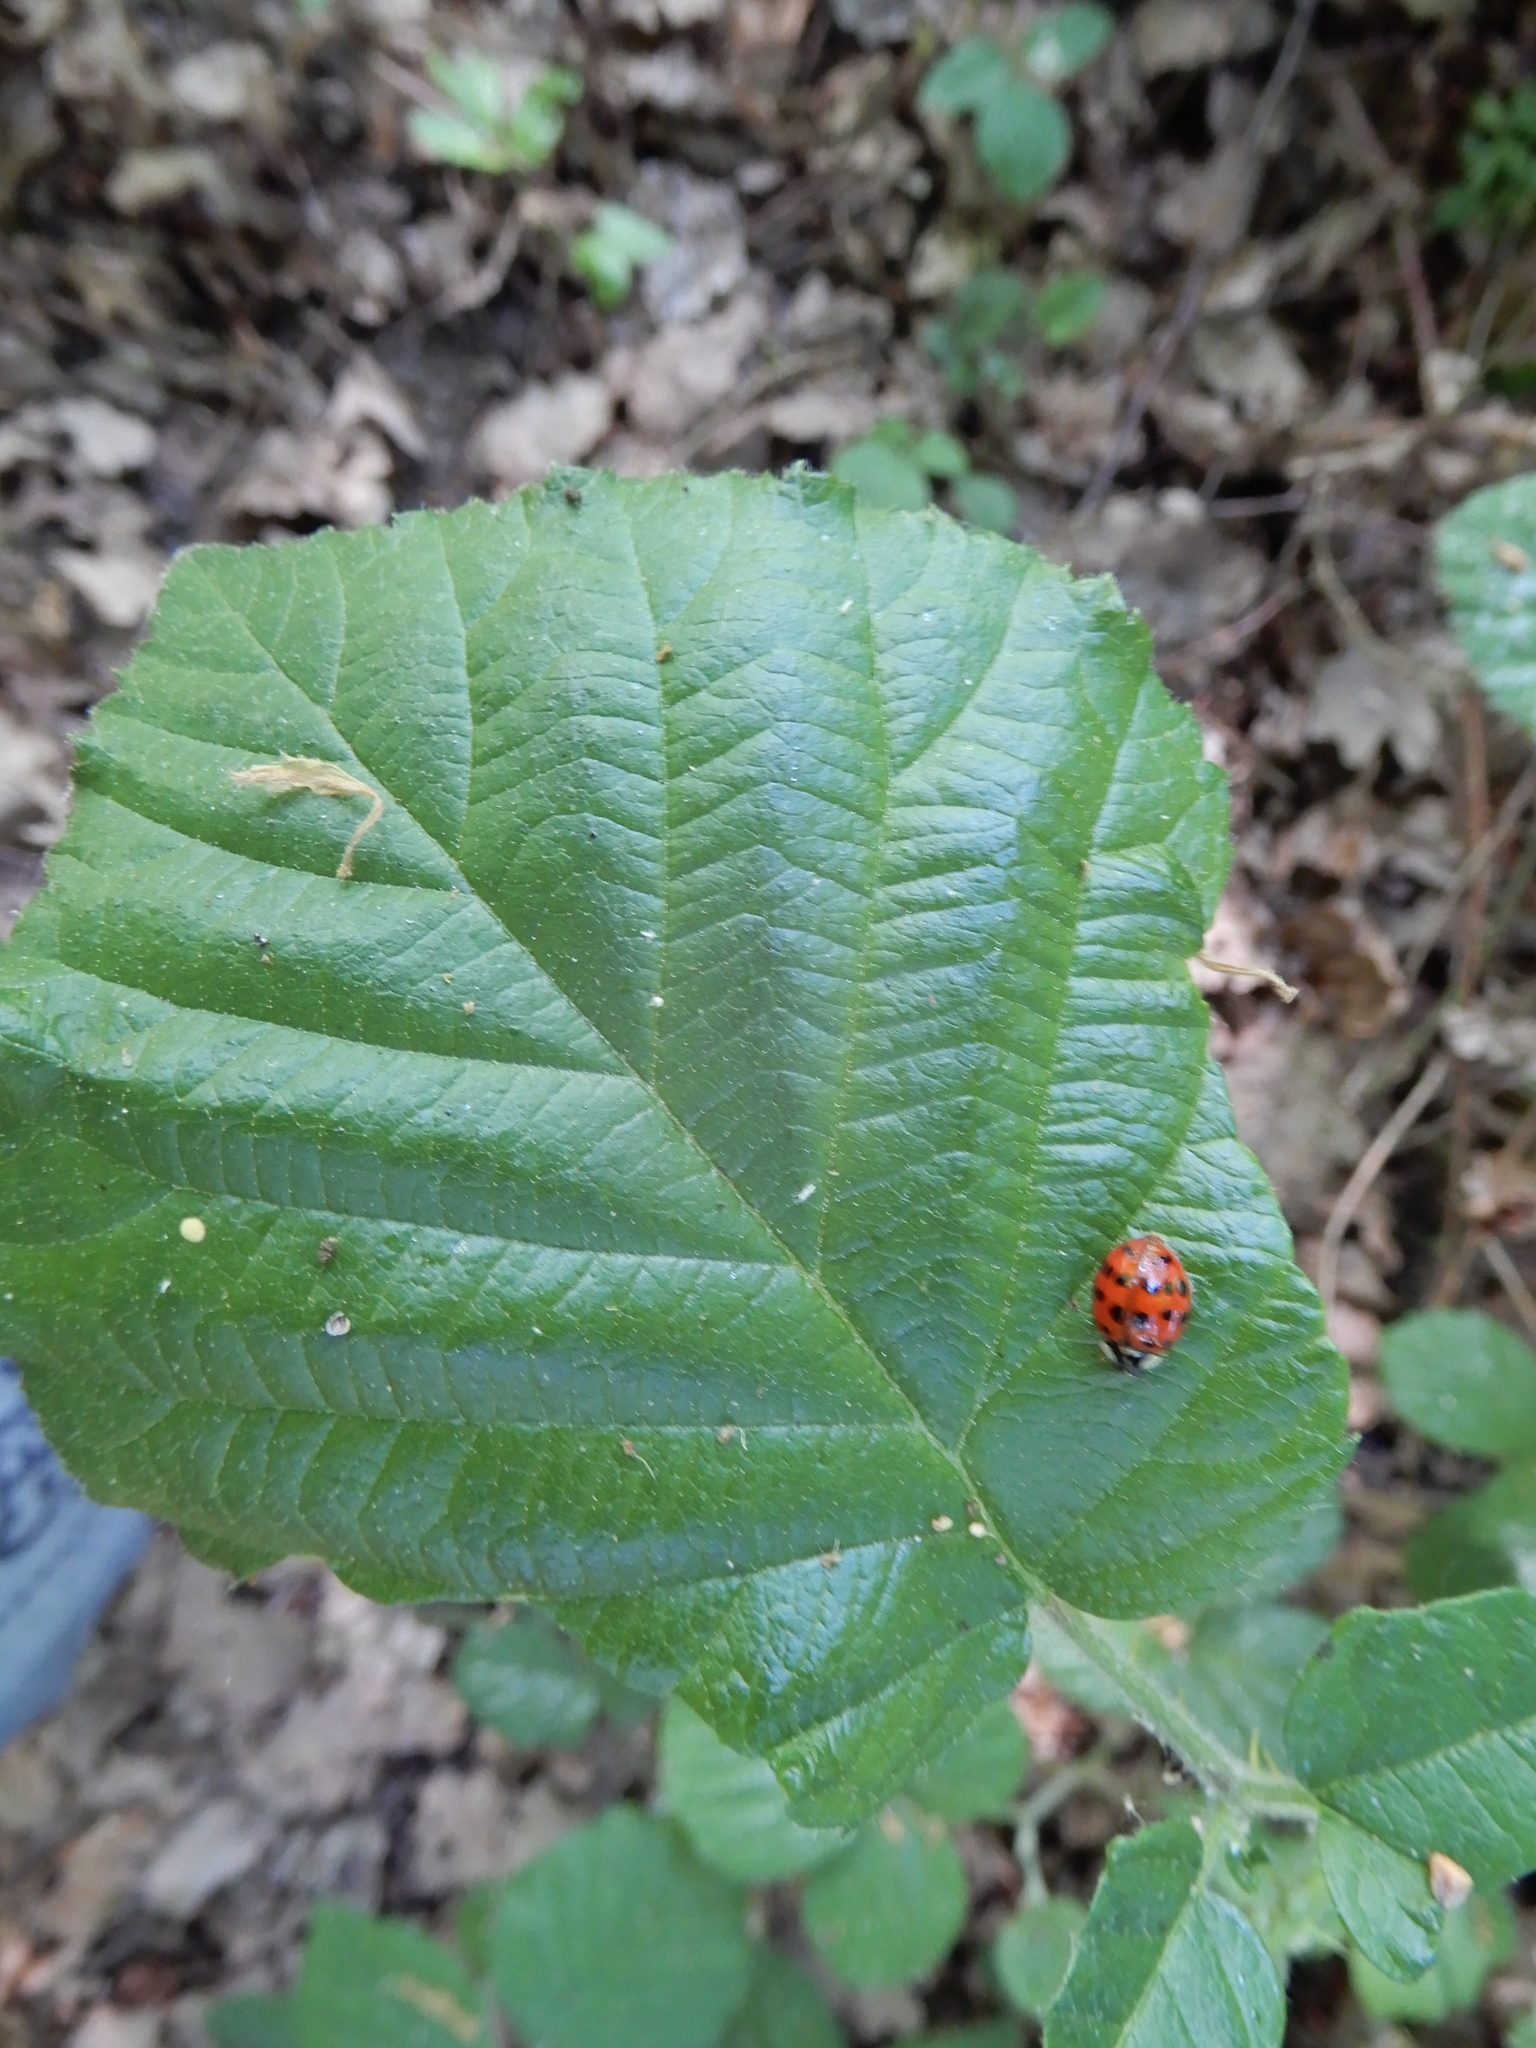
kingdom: Animalia
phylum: Arthropoda
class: Insecta
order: Coleoptera
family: Coccinellidae
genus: Harmonia
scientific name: Harmonia axyridis
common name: Harlequin ladybird
